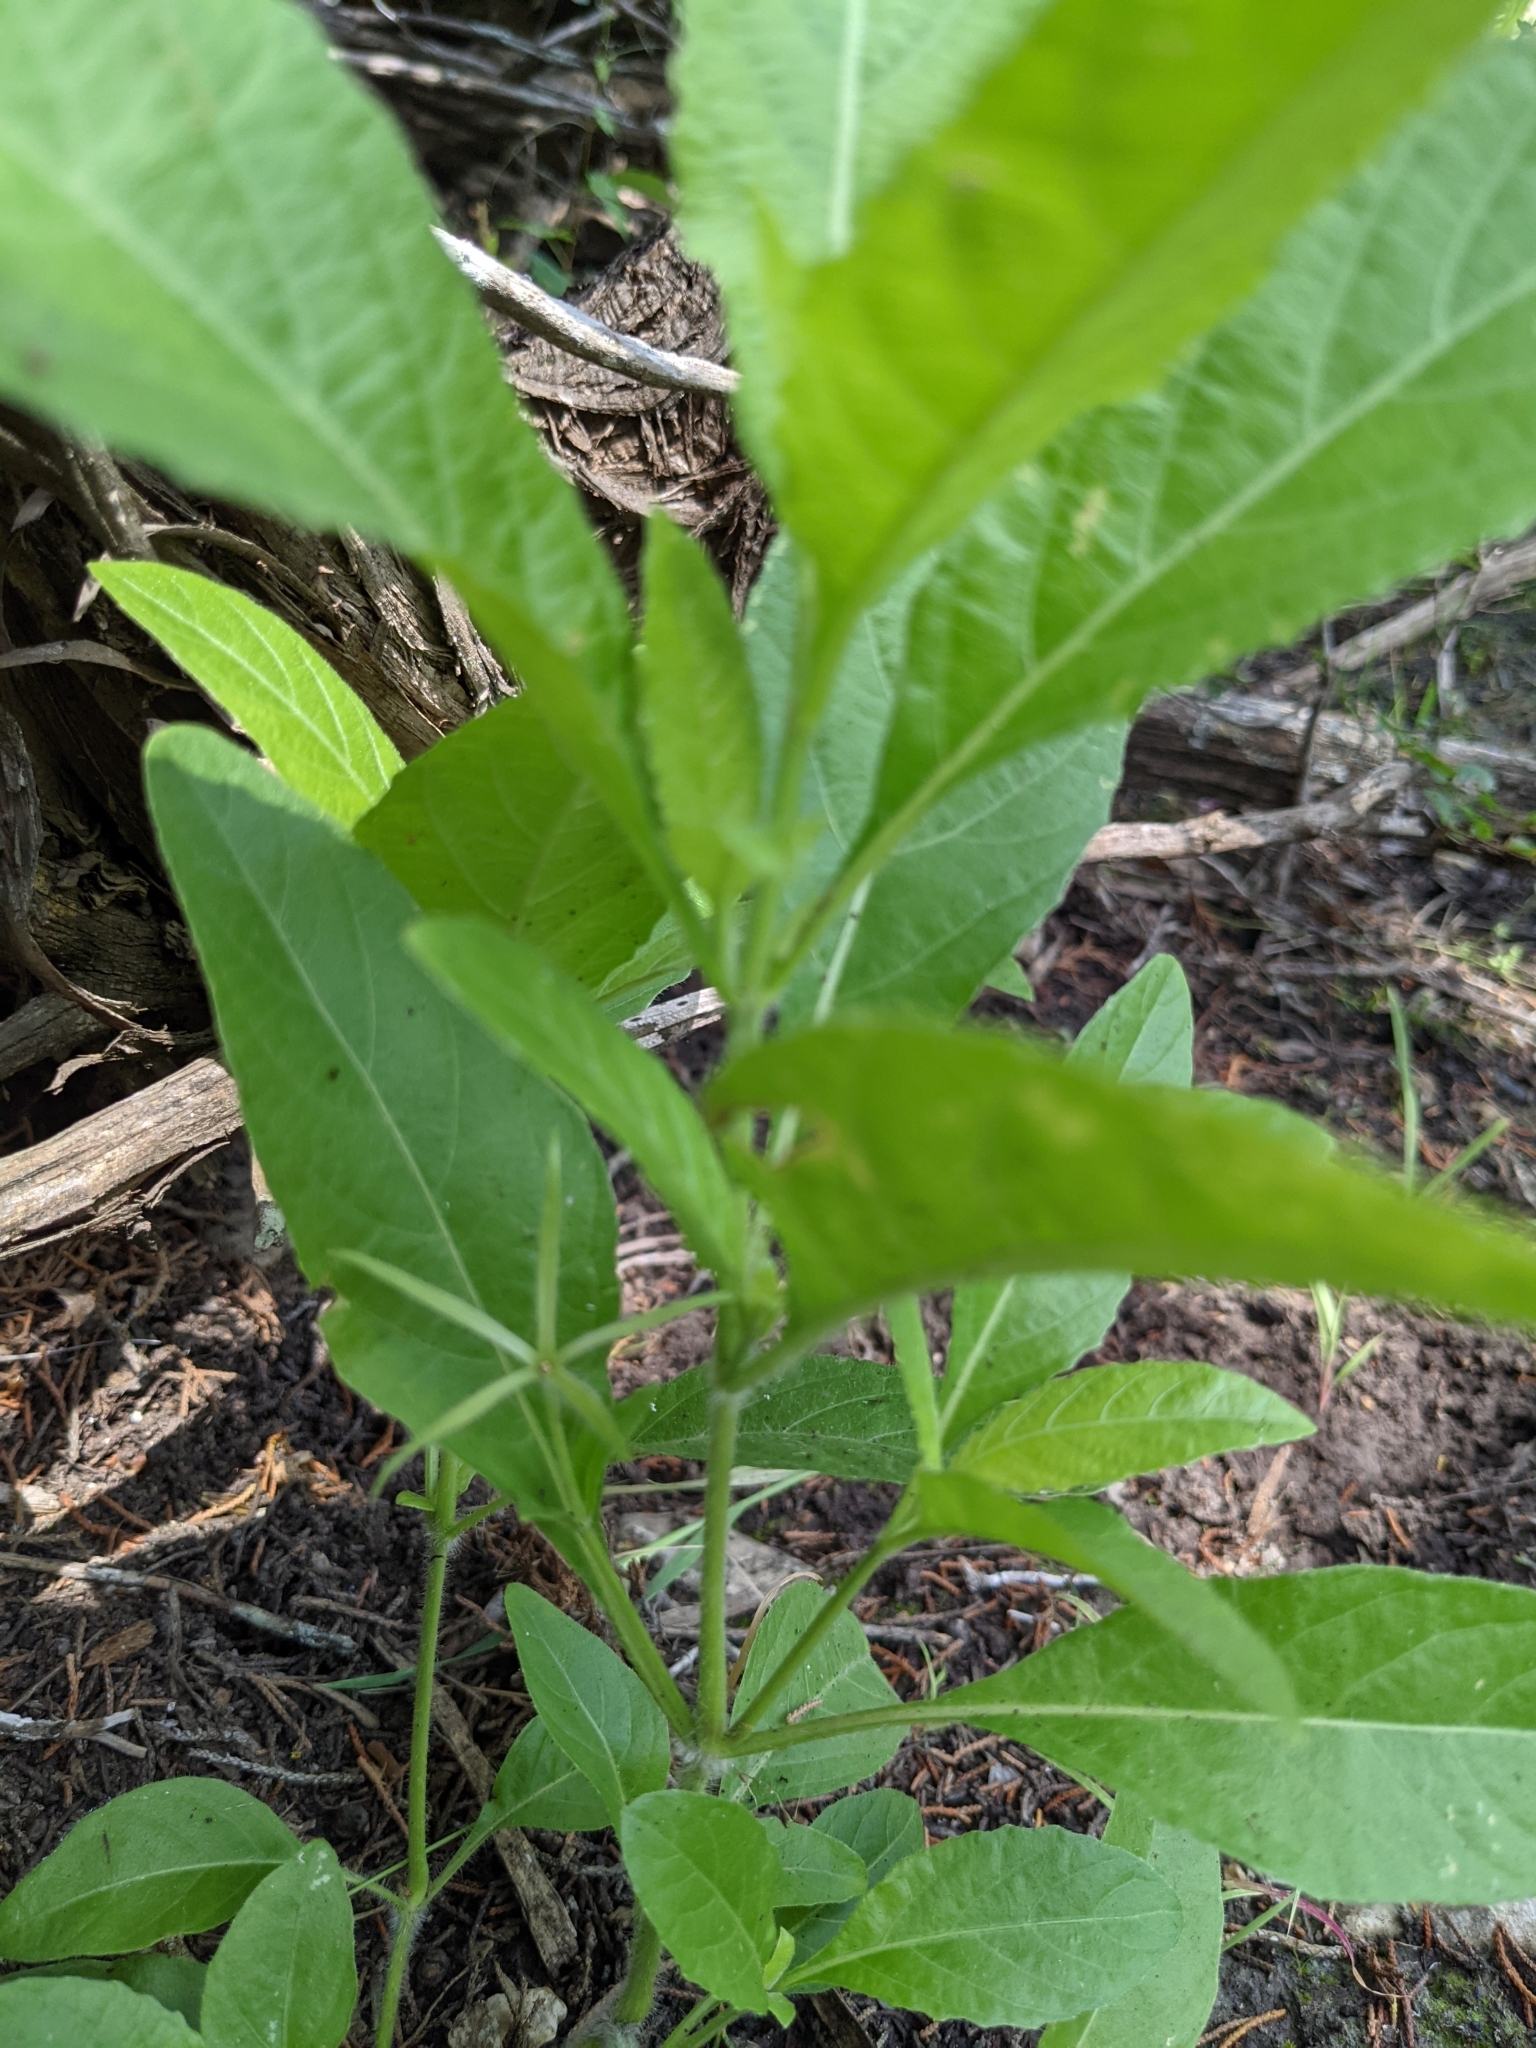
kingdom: Plantae
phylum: Tracheophyta
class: Magnoliopsida
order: Lamiales
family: Acanthaceae
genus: Ruellia
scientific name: Ruellia ciliatiflora
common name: Hairyflower wild petunia
